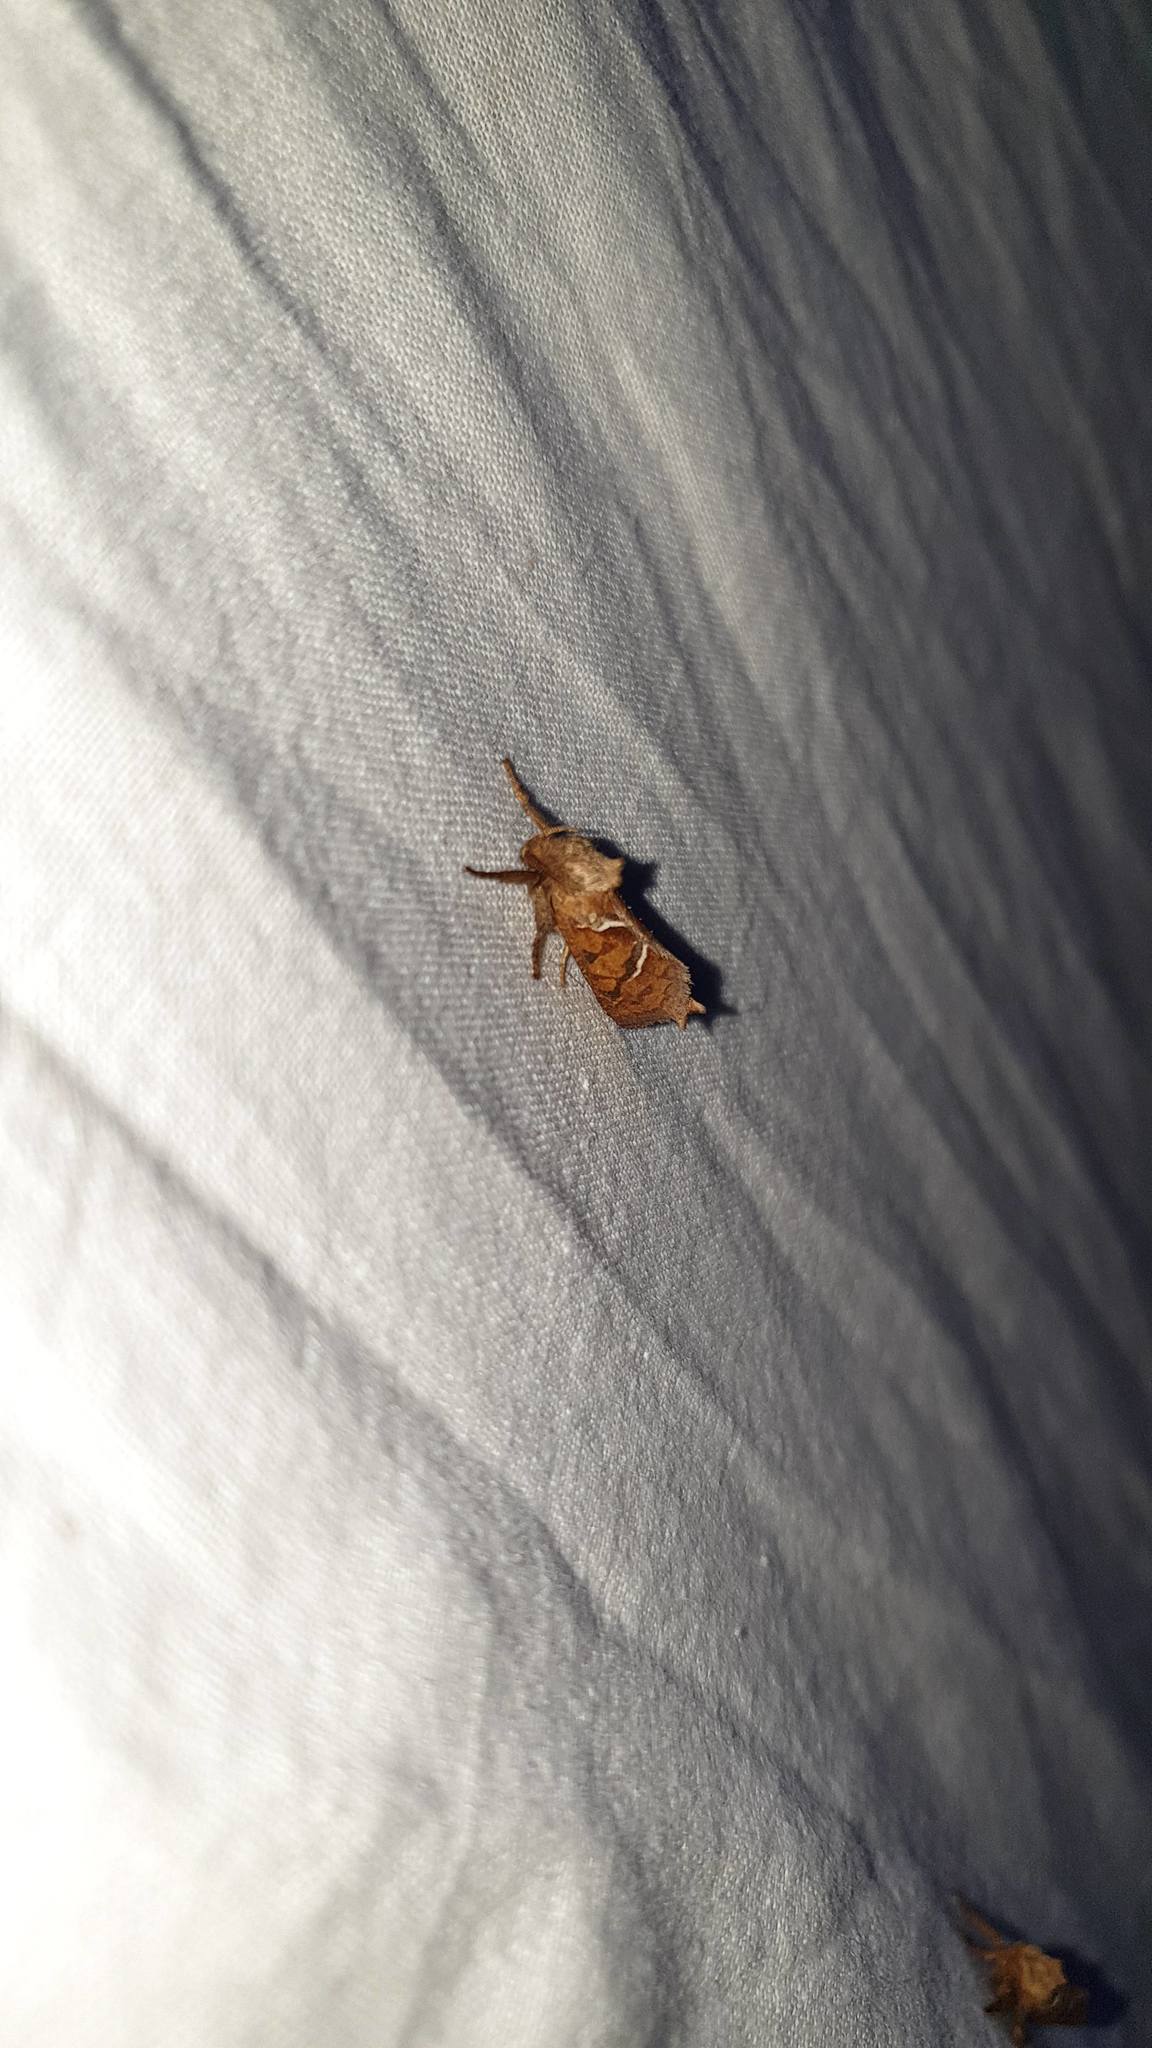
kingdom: Animalia
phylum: Arthropoda
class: Insecta
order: Lepidoptera
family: Hepialidae
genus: Triodia
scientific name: Triodia sylvina
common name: Orange swift
